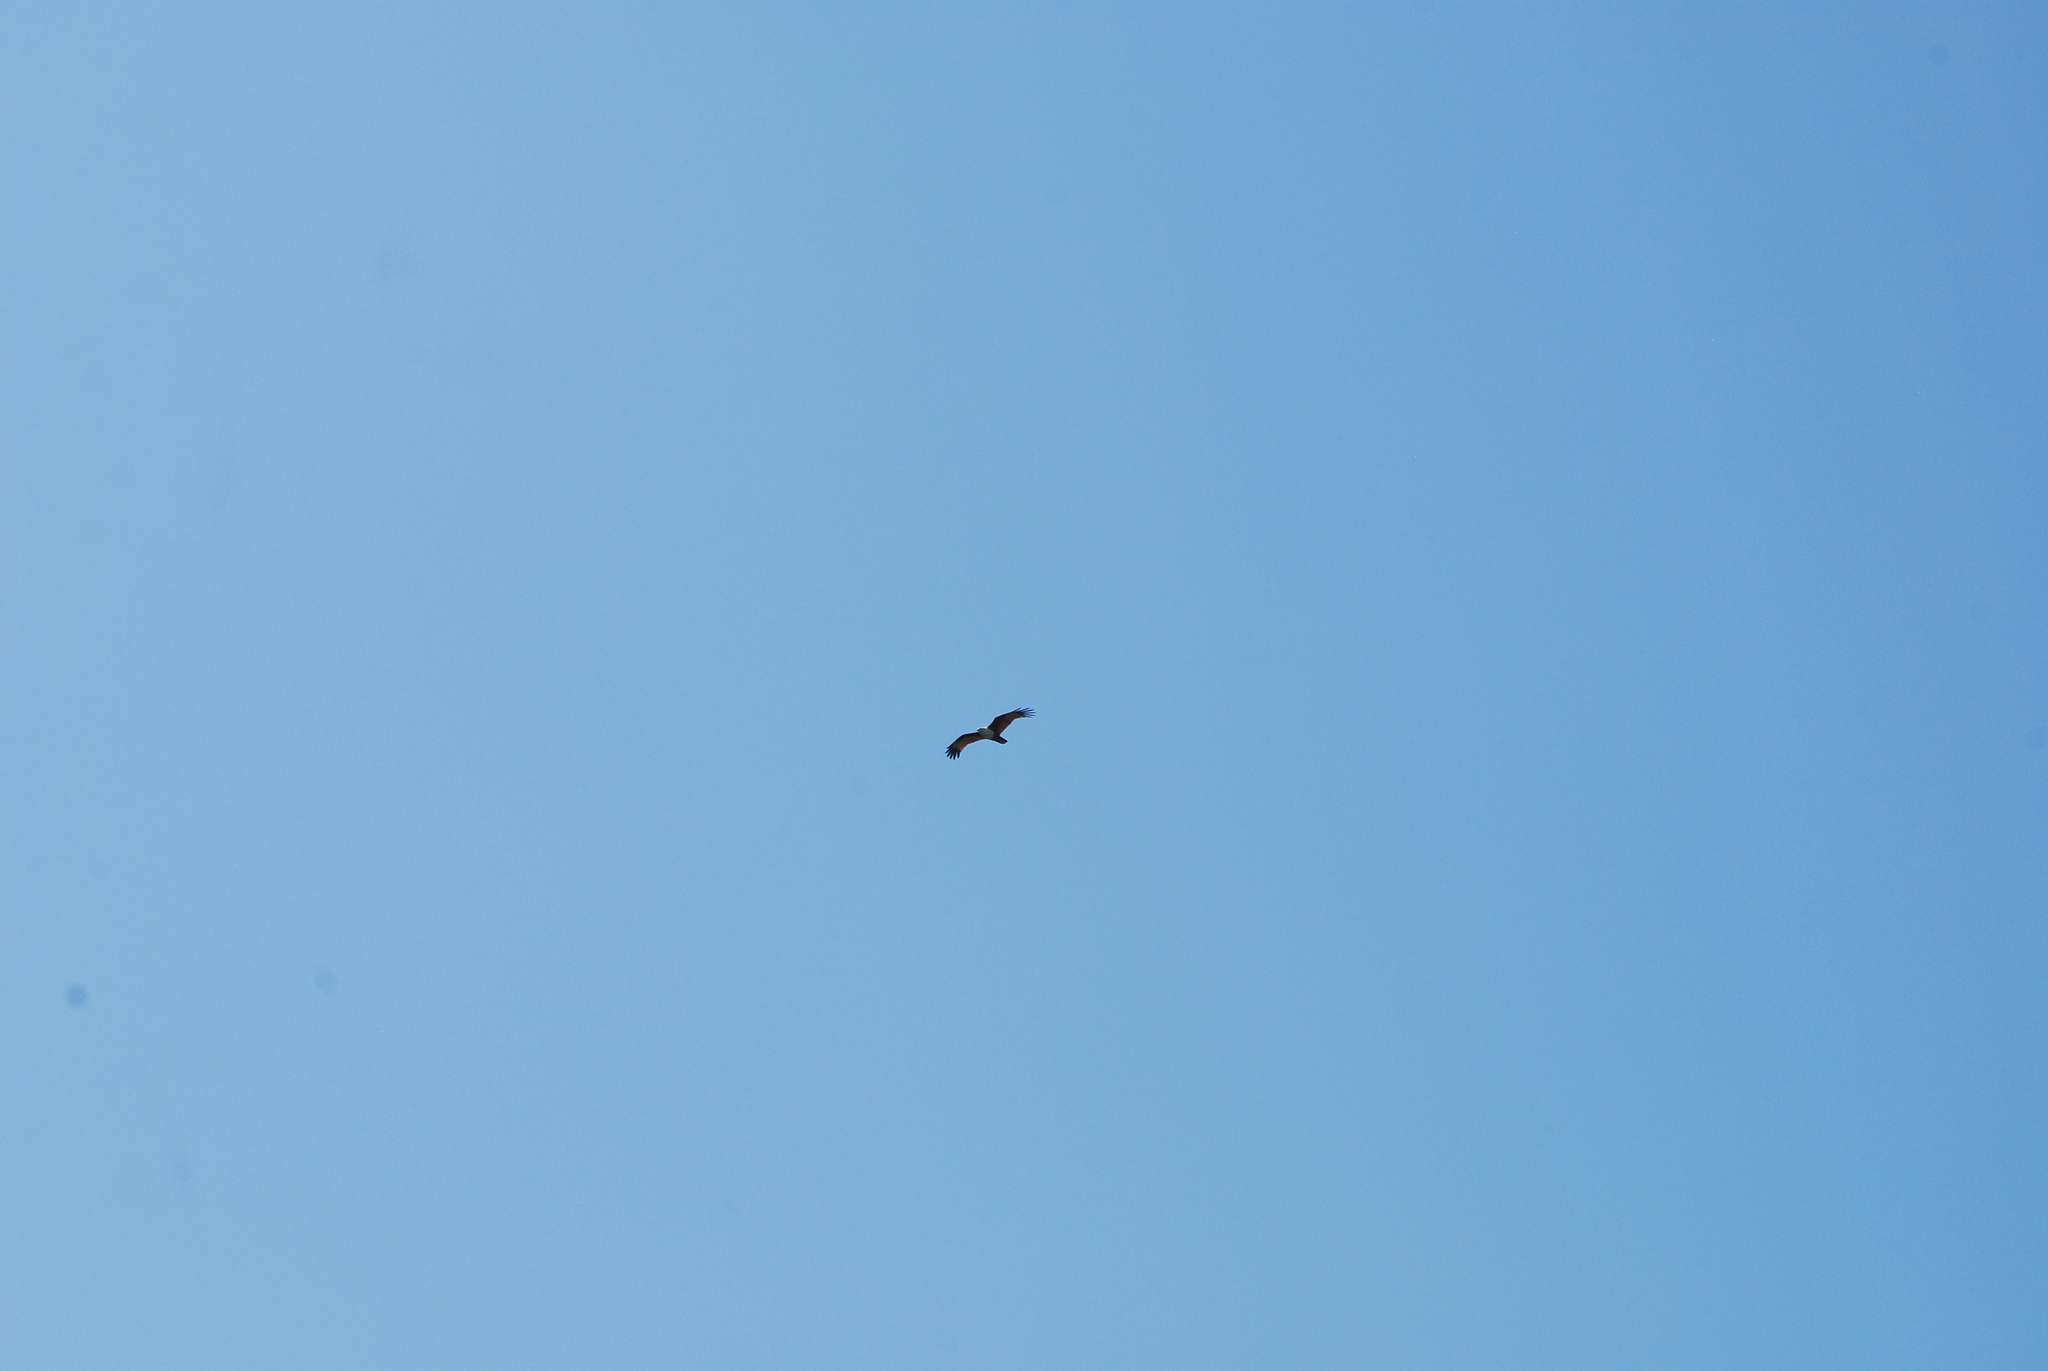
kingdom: Animalia
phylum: Chordata
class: Aves
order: Accipitriformes
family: Accipitridae
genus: Haliastur
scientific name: Haliastur indus
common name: Brahminy kite
